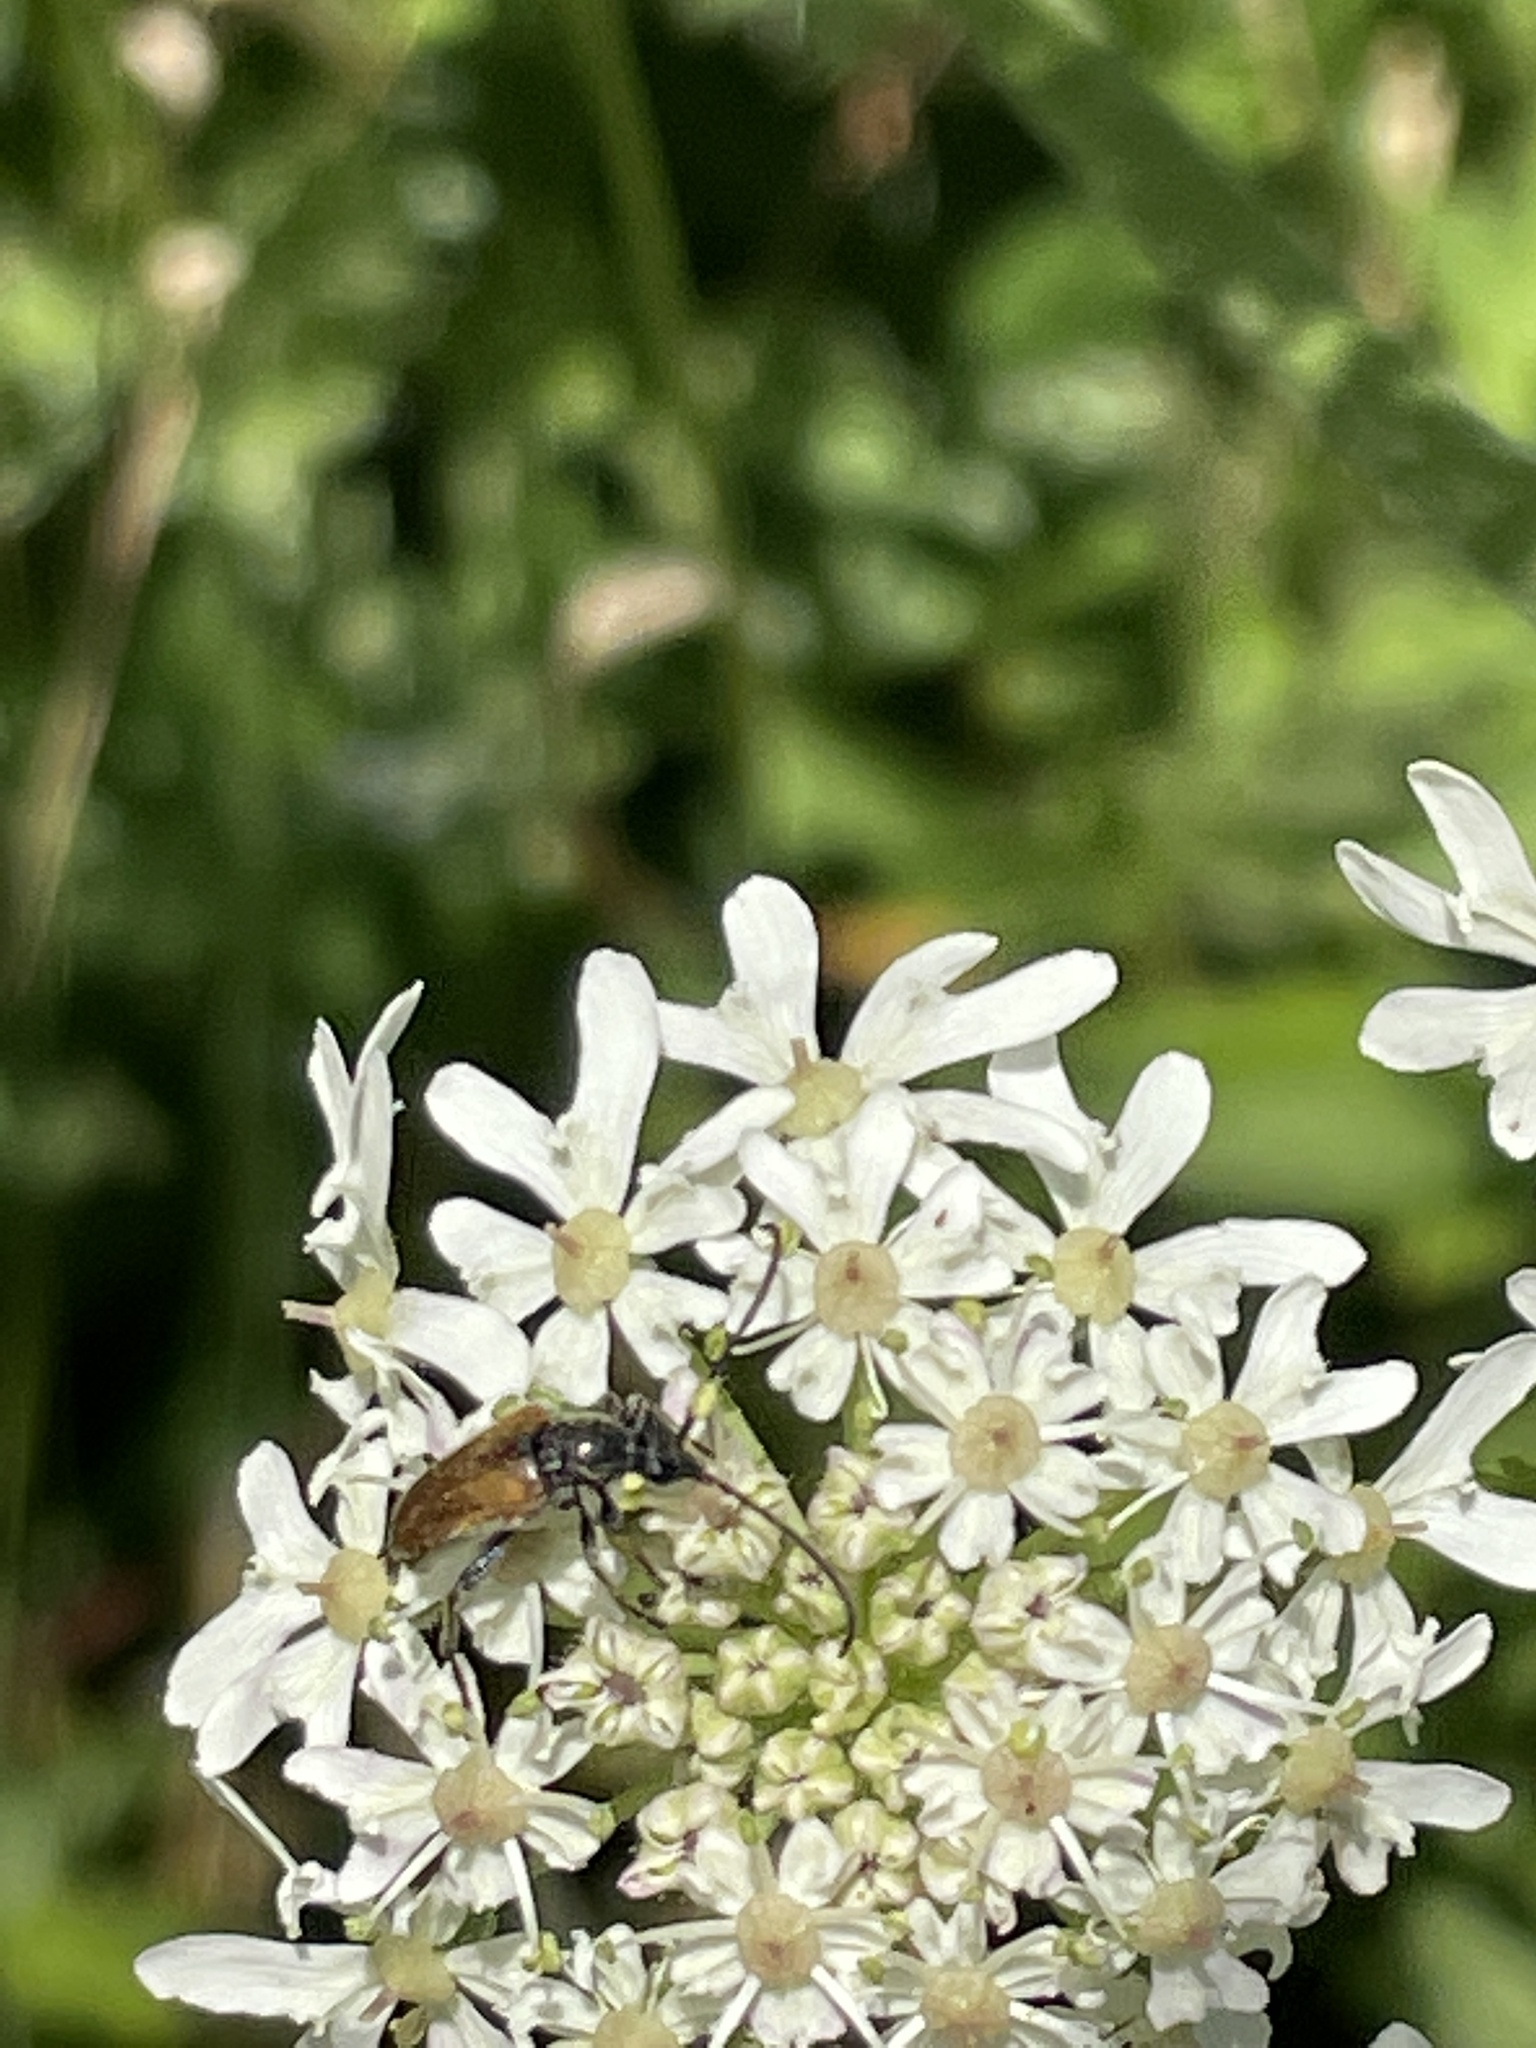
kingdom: Animalia
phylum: Arthropoda
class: Insecta
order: Coleoptera
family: Cerambycidae
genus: Pseudovadonia
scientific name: Pseudovadonia livida
